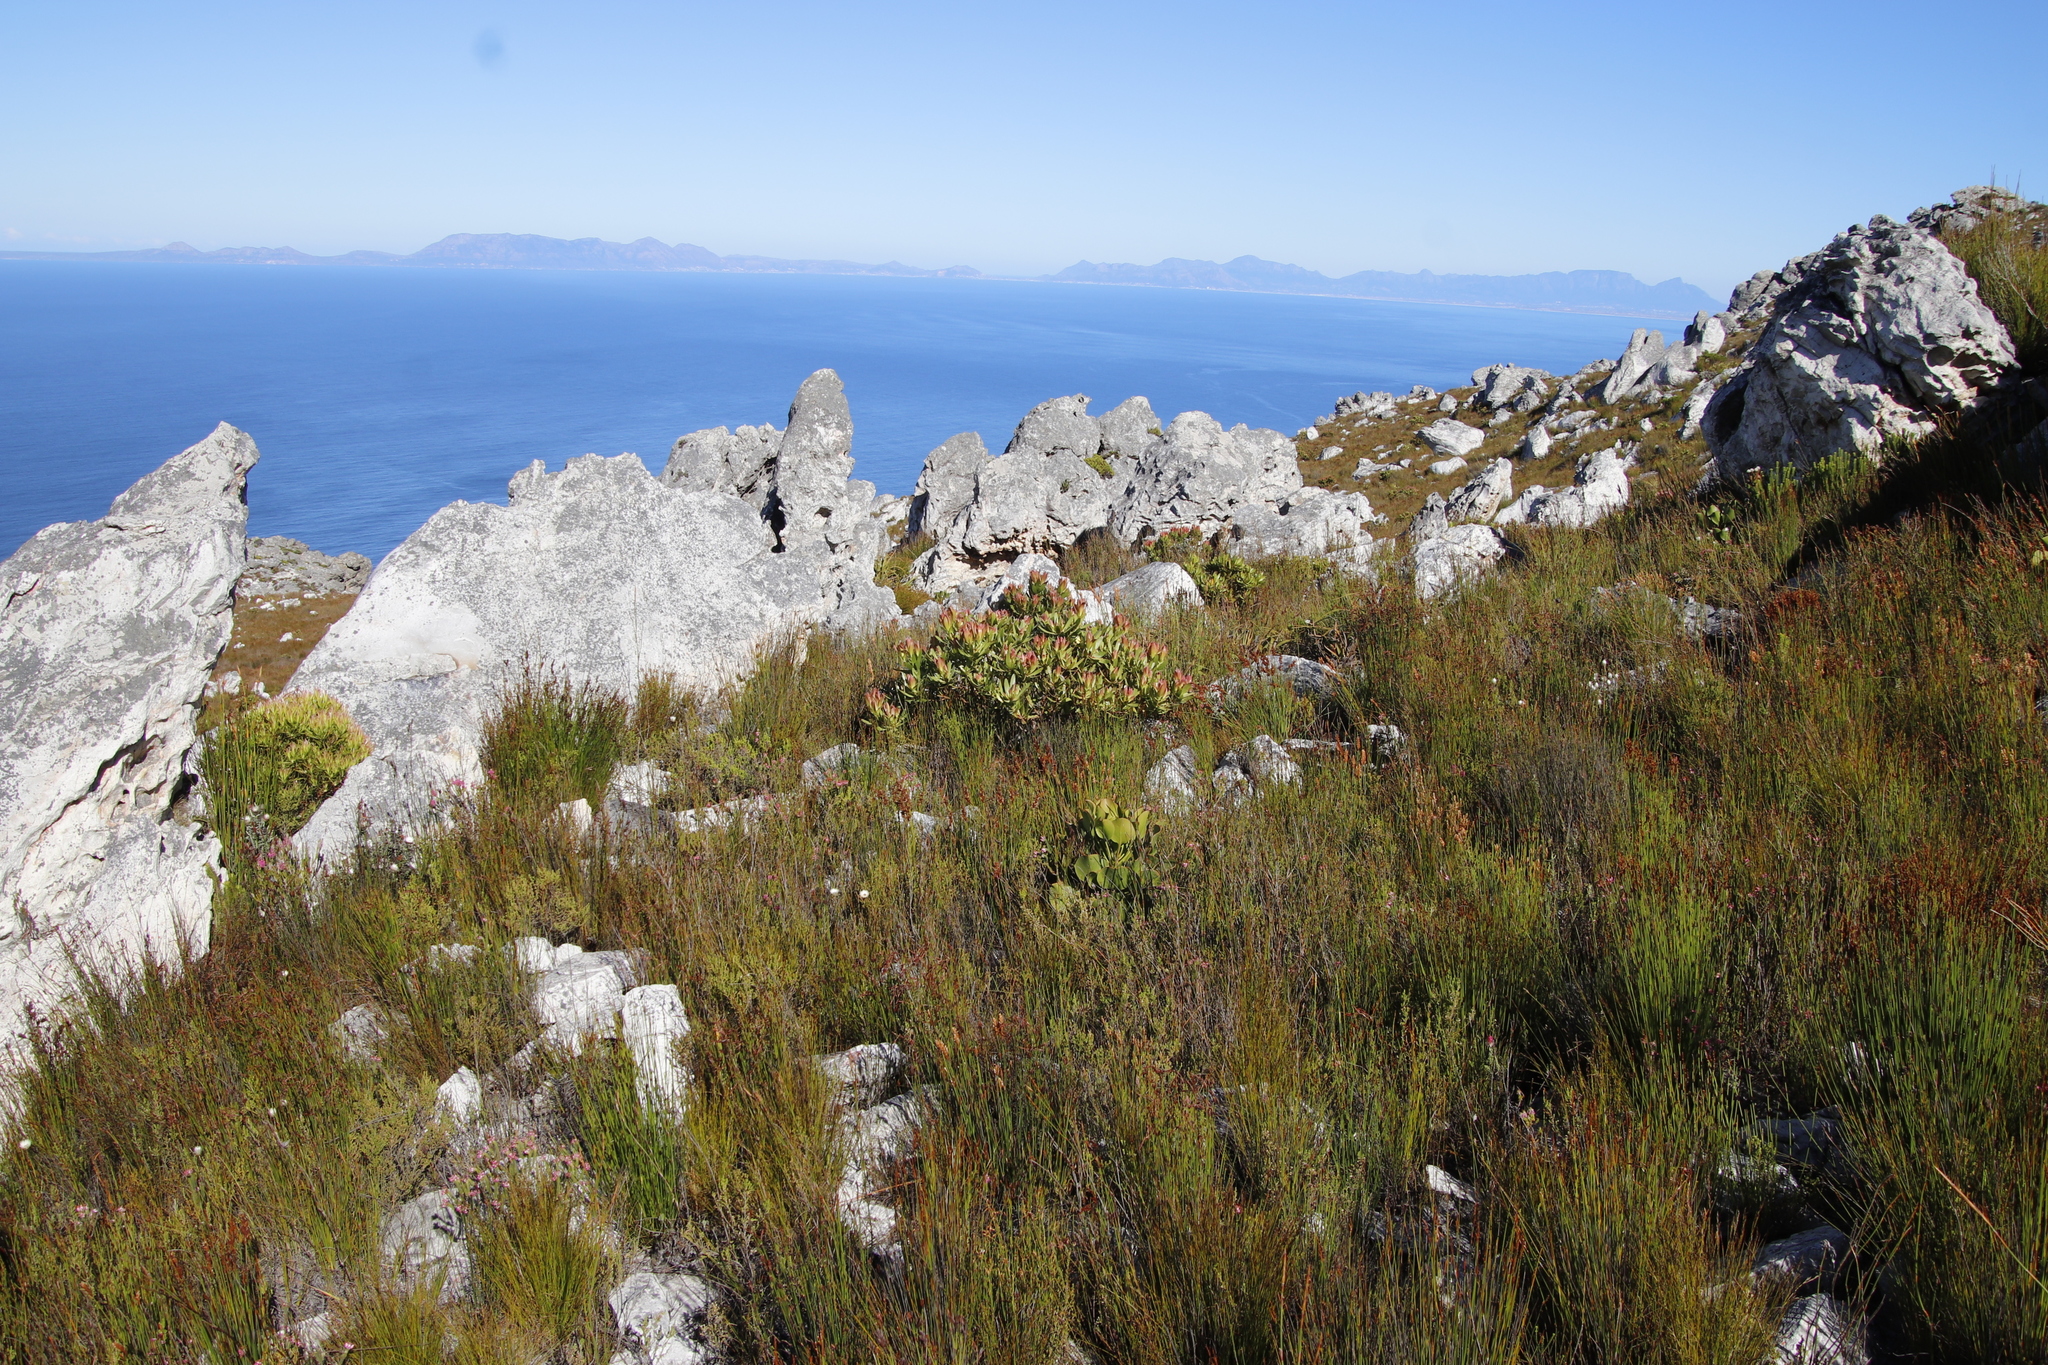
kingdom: Plantae
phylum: Tracheophyta
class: Magnoliopsida
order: Proteales
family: Proteaceae
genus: Leucadendron
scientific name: Leucadendron laureolum
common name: Golden sunshinebush
